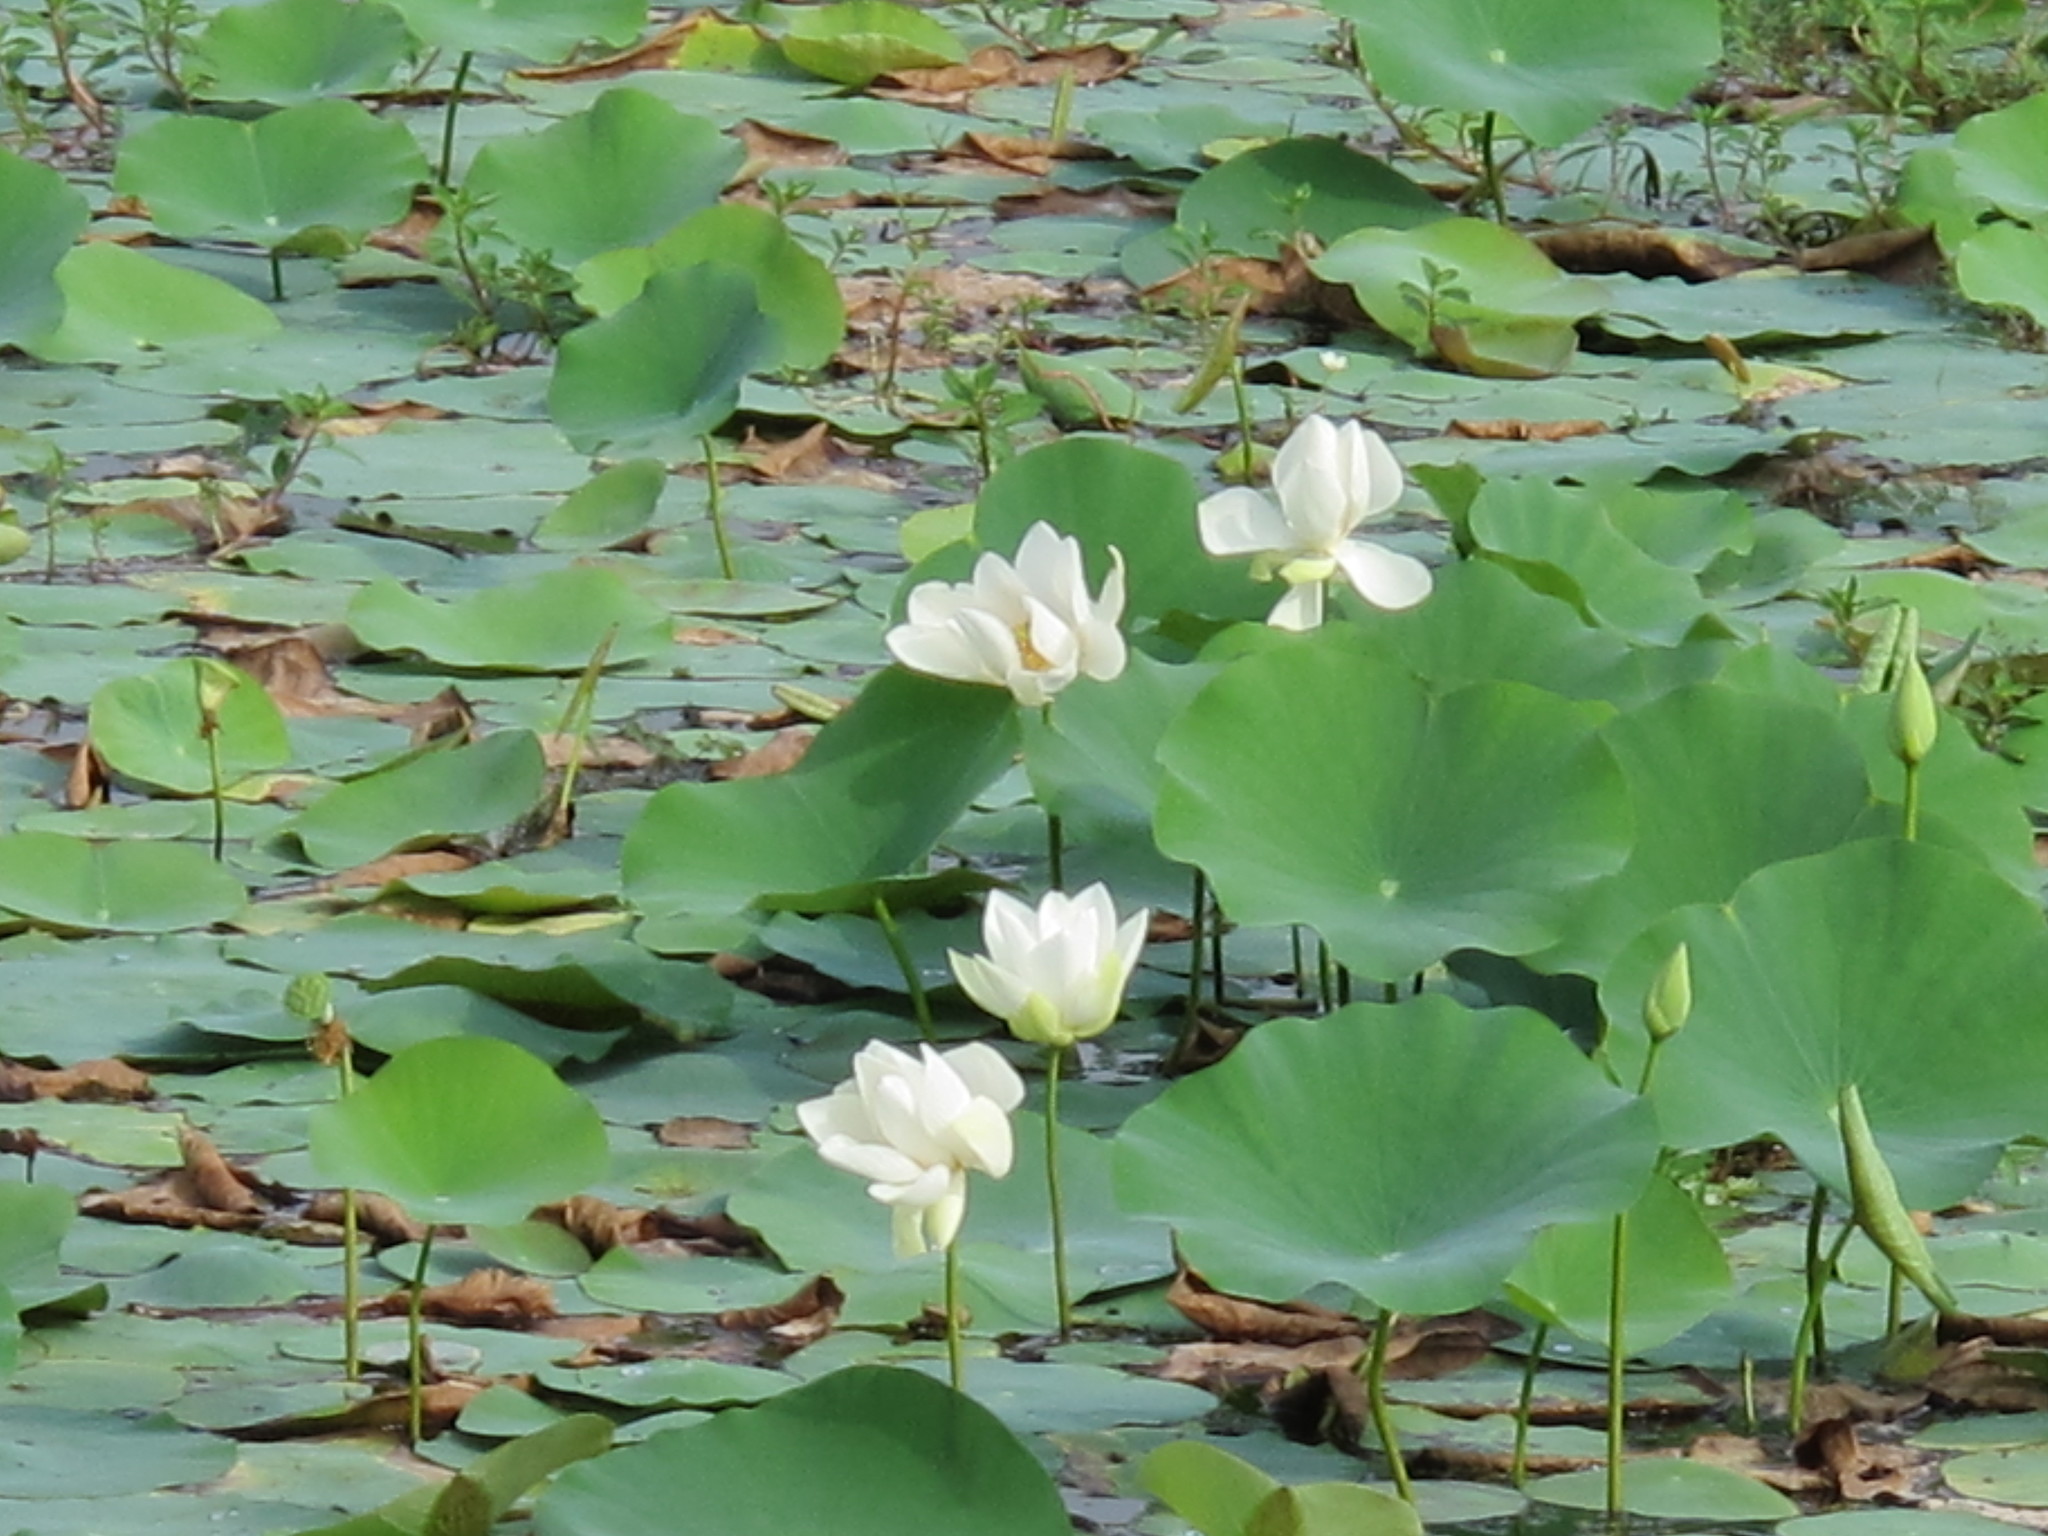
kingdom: Plantae
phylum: Tracheophyta
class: Magnoliopsida
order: Proteales
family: Nelumbonaceae
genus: Nelumbo
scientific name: Nelumbo nucifera
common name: Sacred lotus
